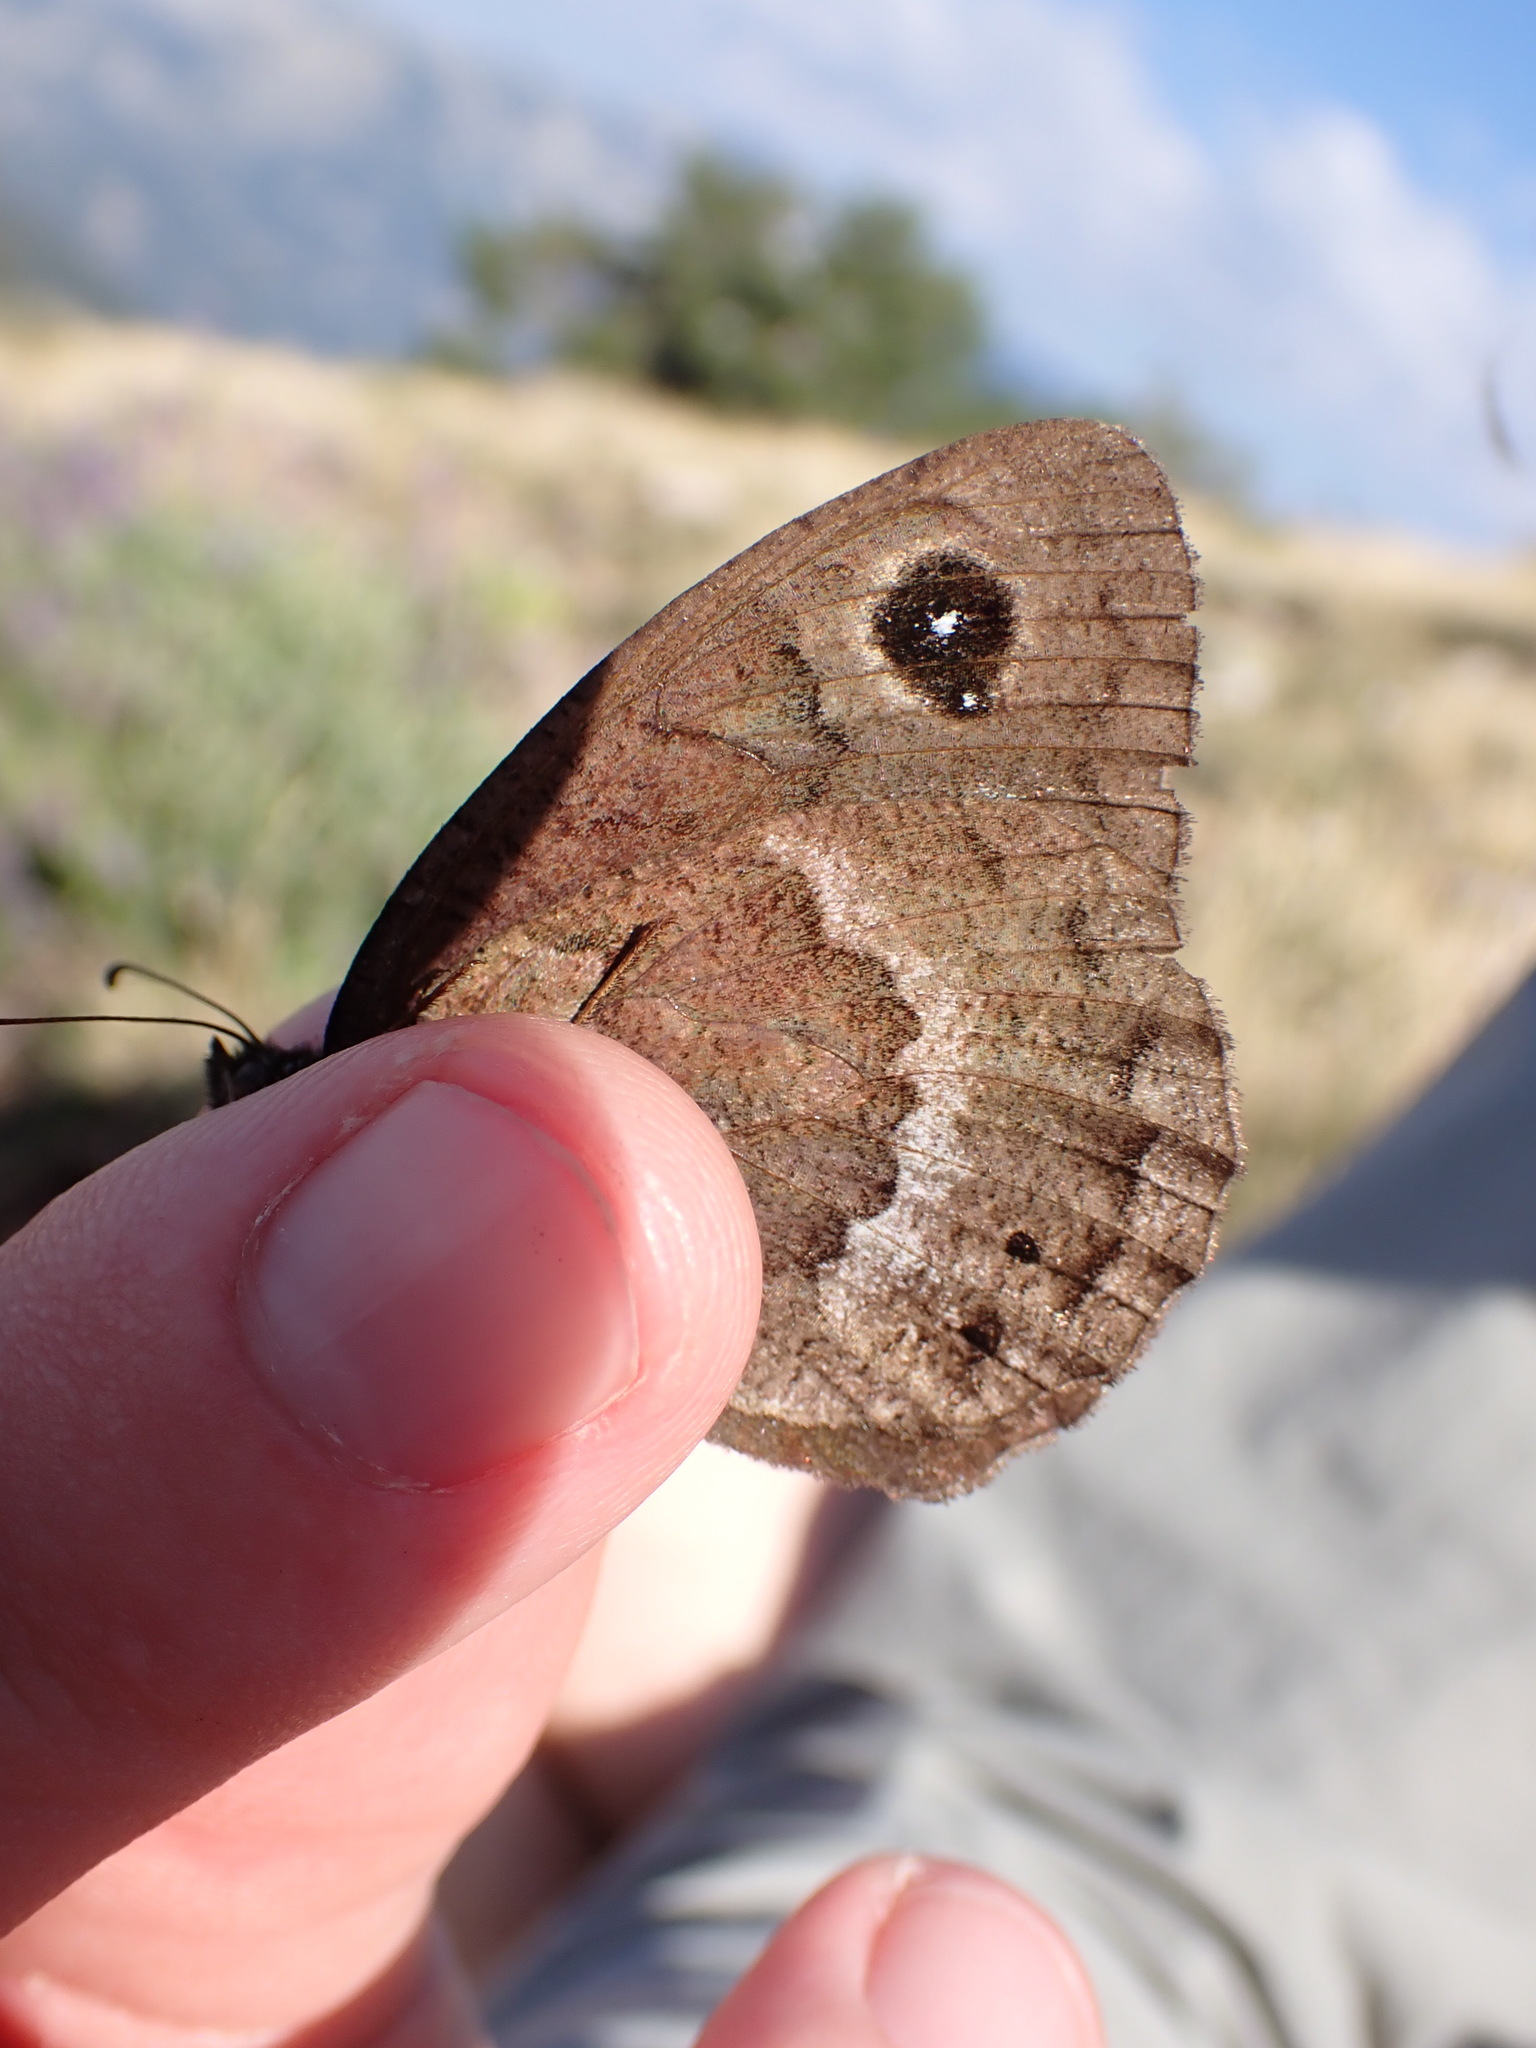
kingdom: Animalia
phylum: Arthropoda
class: Insecta
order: Lepidoptera
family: Nymphalidae
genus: Satyrus
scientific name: Satyrus ferula
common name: Great sooty satyr
